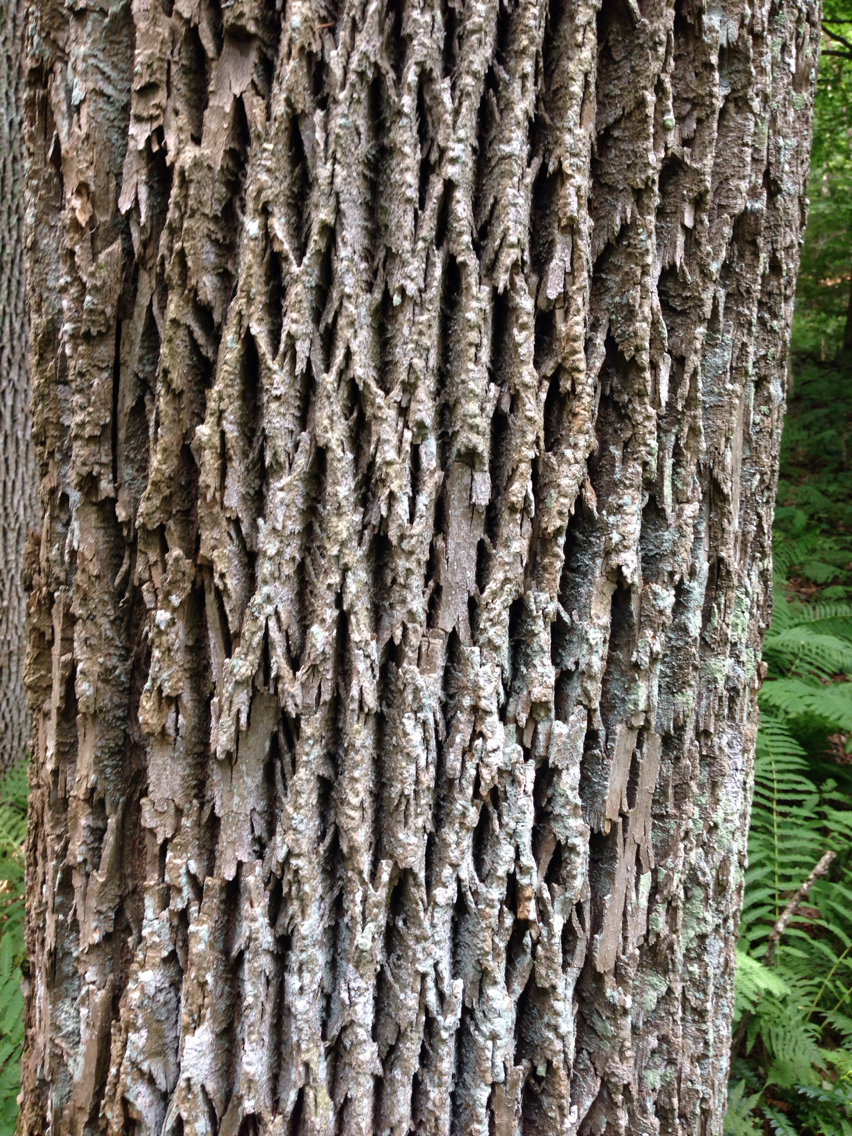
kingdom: Plantae
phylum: Tracheophyta
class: Magnoliopsida
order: Lamiales
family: Oleaceae
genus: Fraxinus
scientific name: Fraxinus americana
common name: White ash
